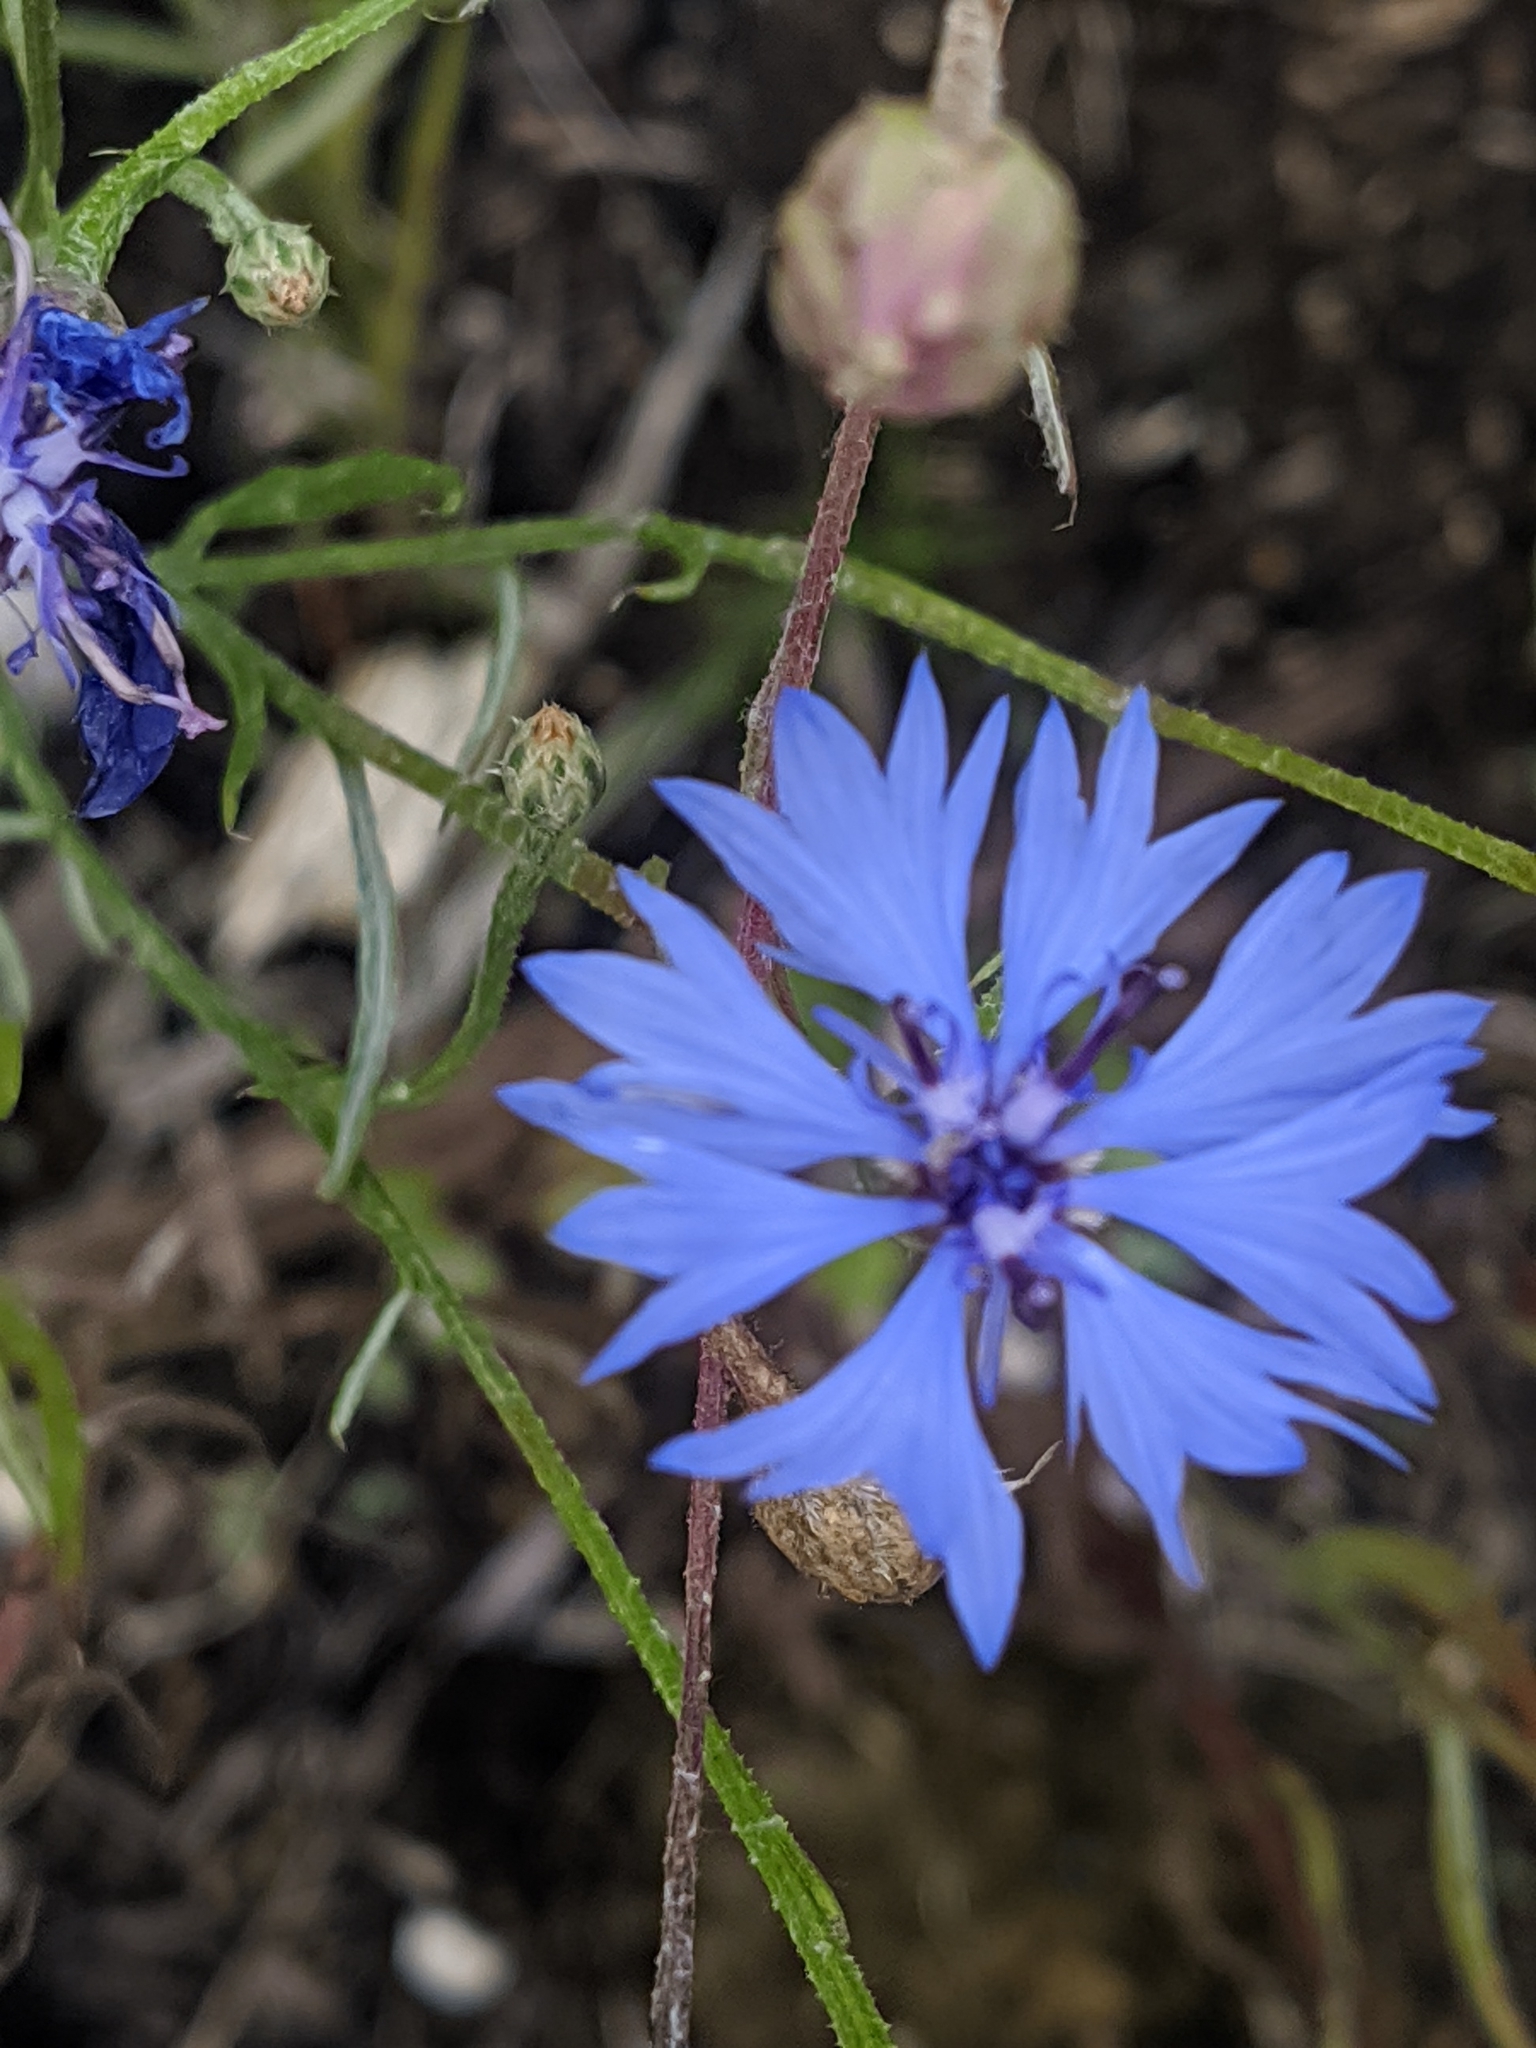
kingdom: Plantae
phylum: Tracheophyta
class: Magnoliopsida
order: Asterales
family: Asteraceae
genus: Centaurea
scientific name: Centaurea cyanus
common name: Cornflower
